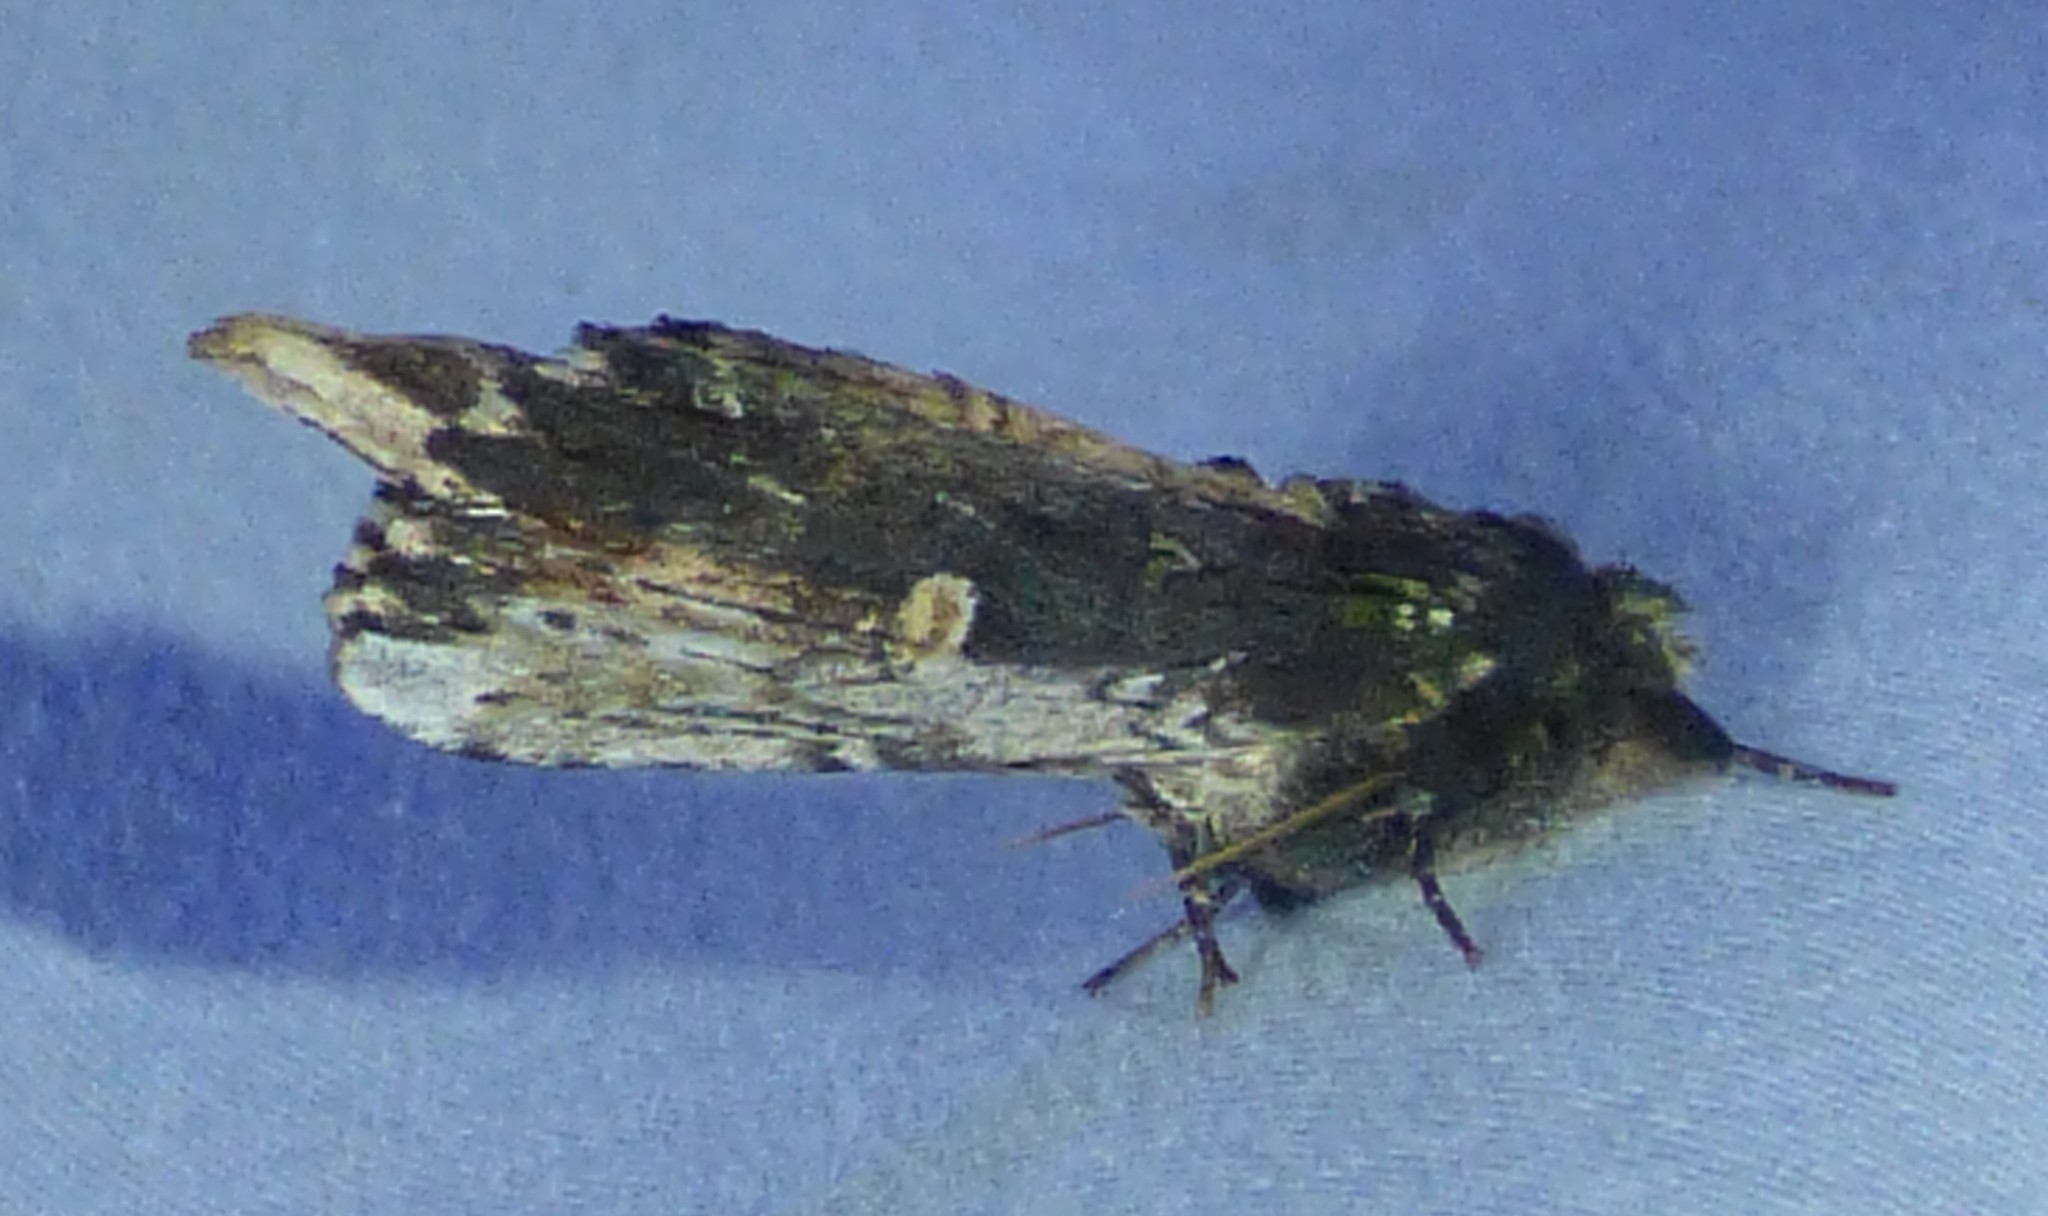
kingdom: Animalia
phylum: Arthropoda
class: Insecta
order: Lepidoptera
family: Notodontidae
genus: Schizura
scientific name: Schizura ipomaeae
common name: Morning-glory prominent
